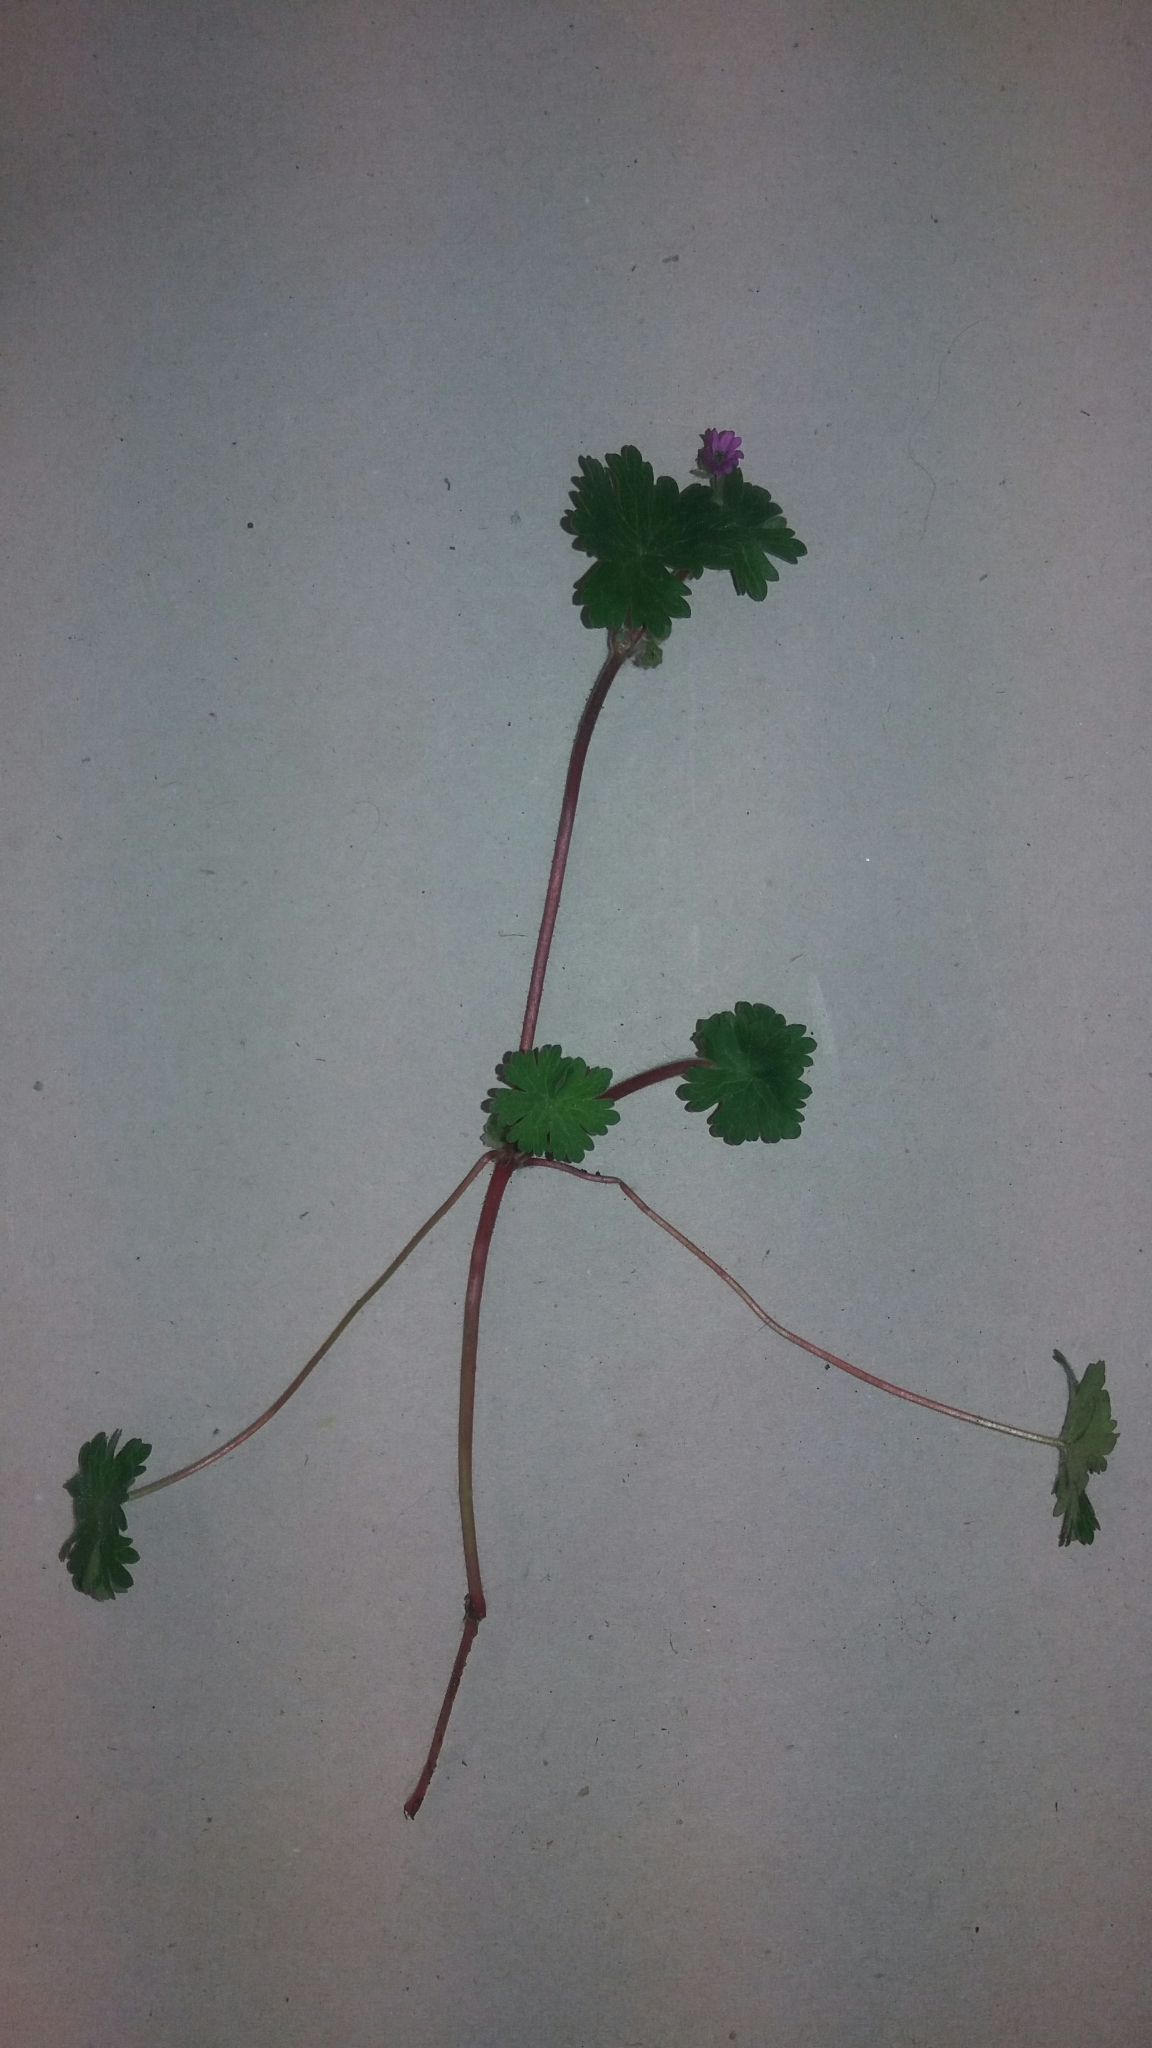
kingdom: Plantae
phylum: Tracheophyta
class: Magnoliopsida
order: Geraniales
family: Geraniaceae
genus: Geranium
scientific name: Geranium molle
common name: Dove's-foot crane's-bill
